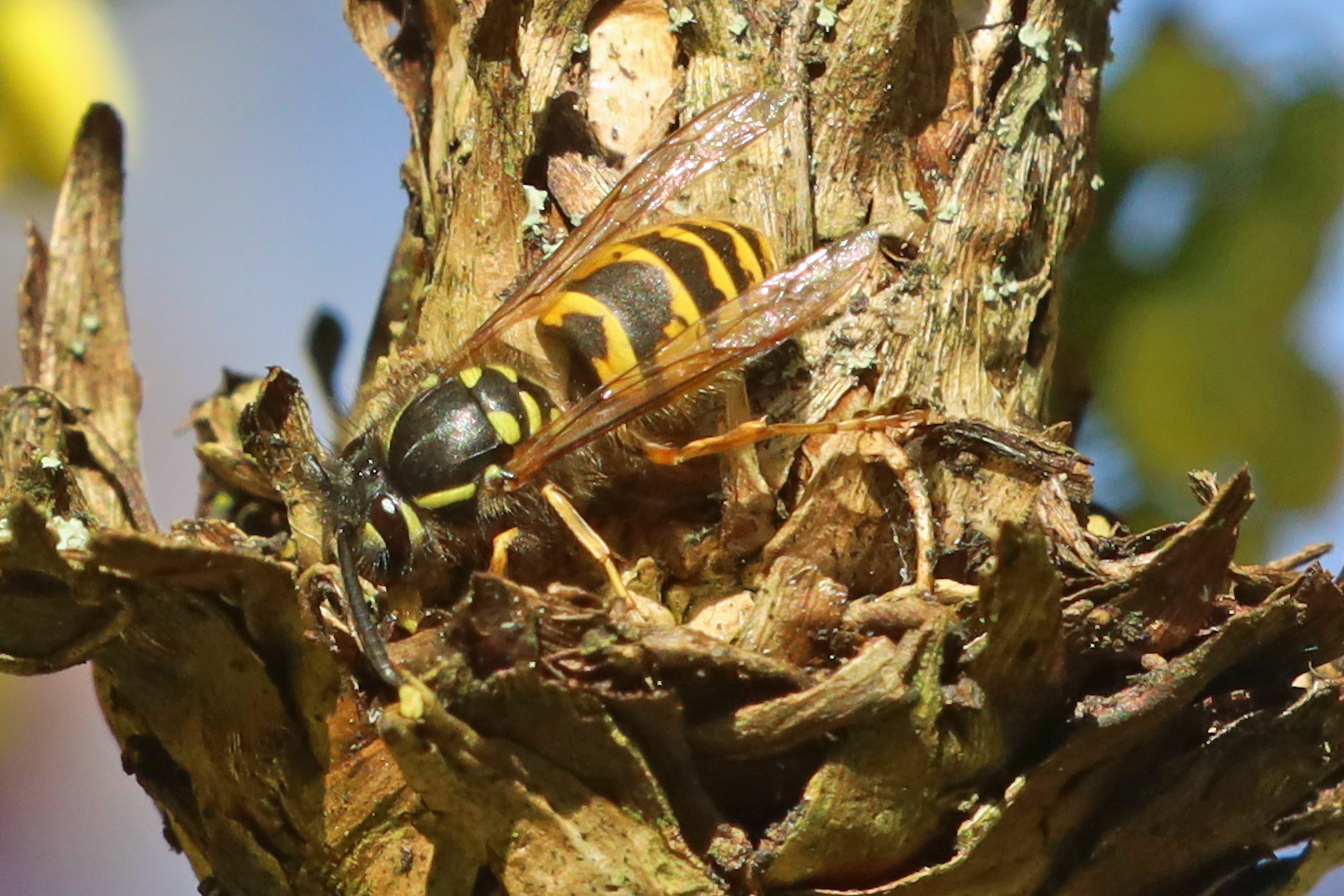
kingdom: Animalia
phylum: Arthropoda
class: Insecta
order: Hymenoptera
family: Vespidae
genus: Vespula
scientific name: Vespula vulgaris
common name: Common wasp
